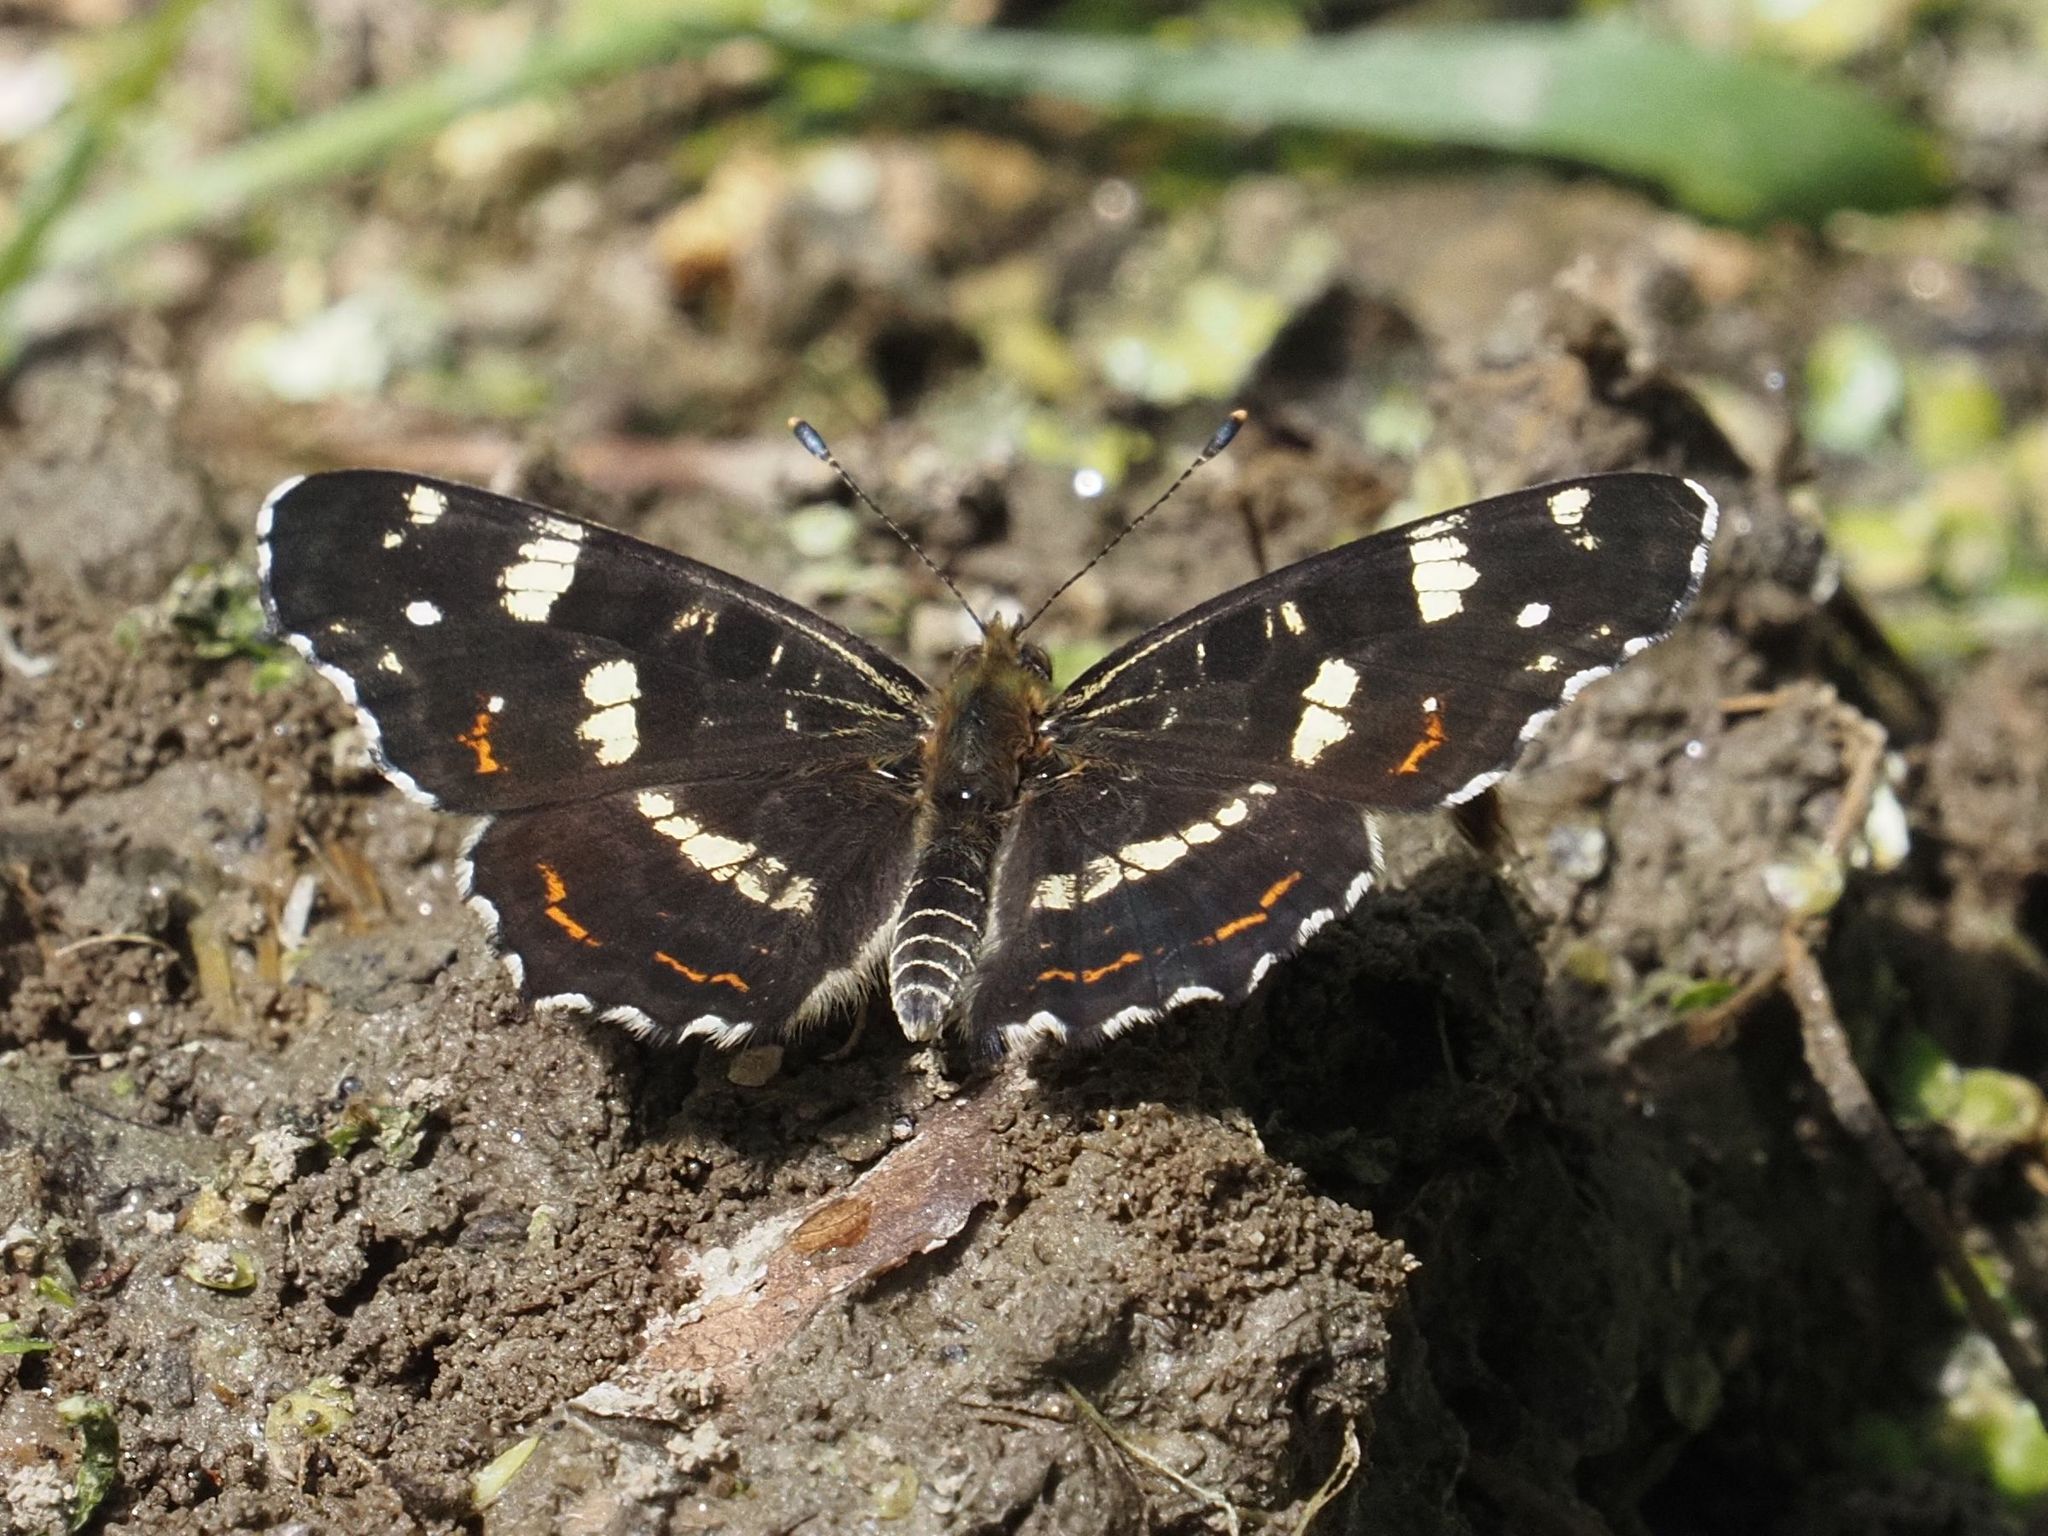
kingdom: Animalia
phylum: Arthropoda
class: Insecta
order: Lepidoptera
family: Nymphalidae
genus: Araschnia
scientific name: Araschnia levana
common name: Map butterfly
